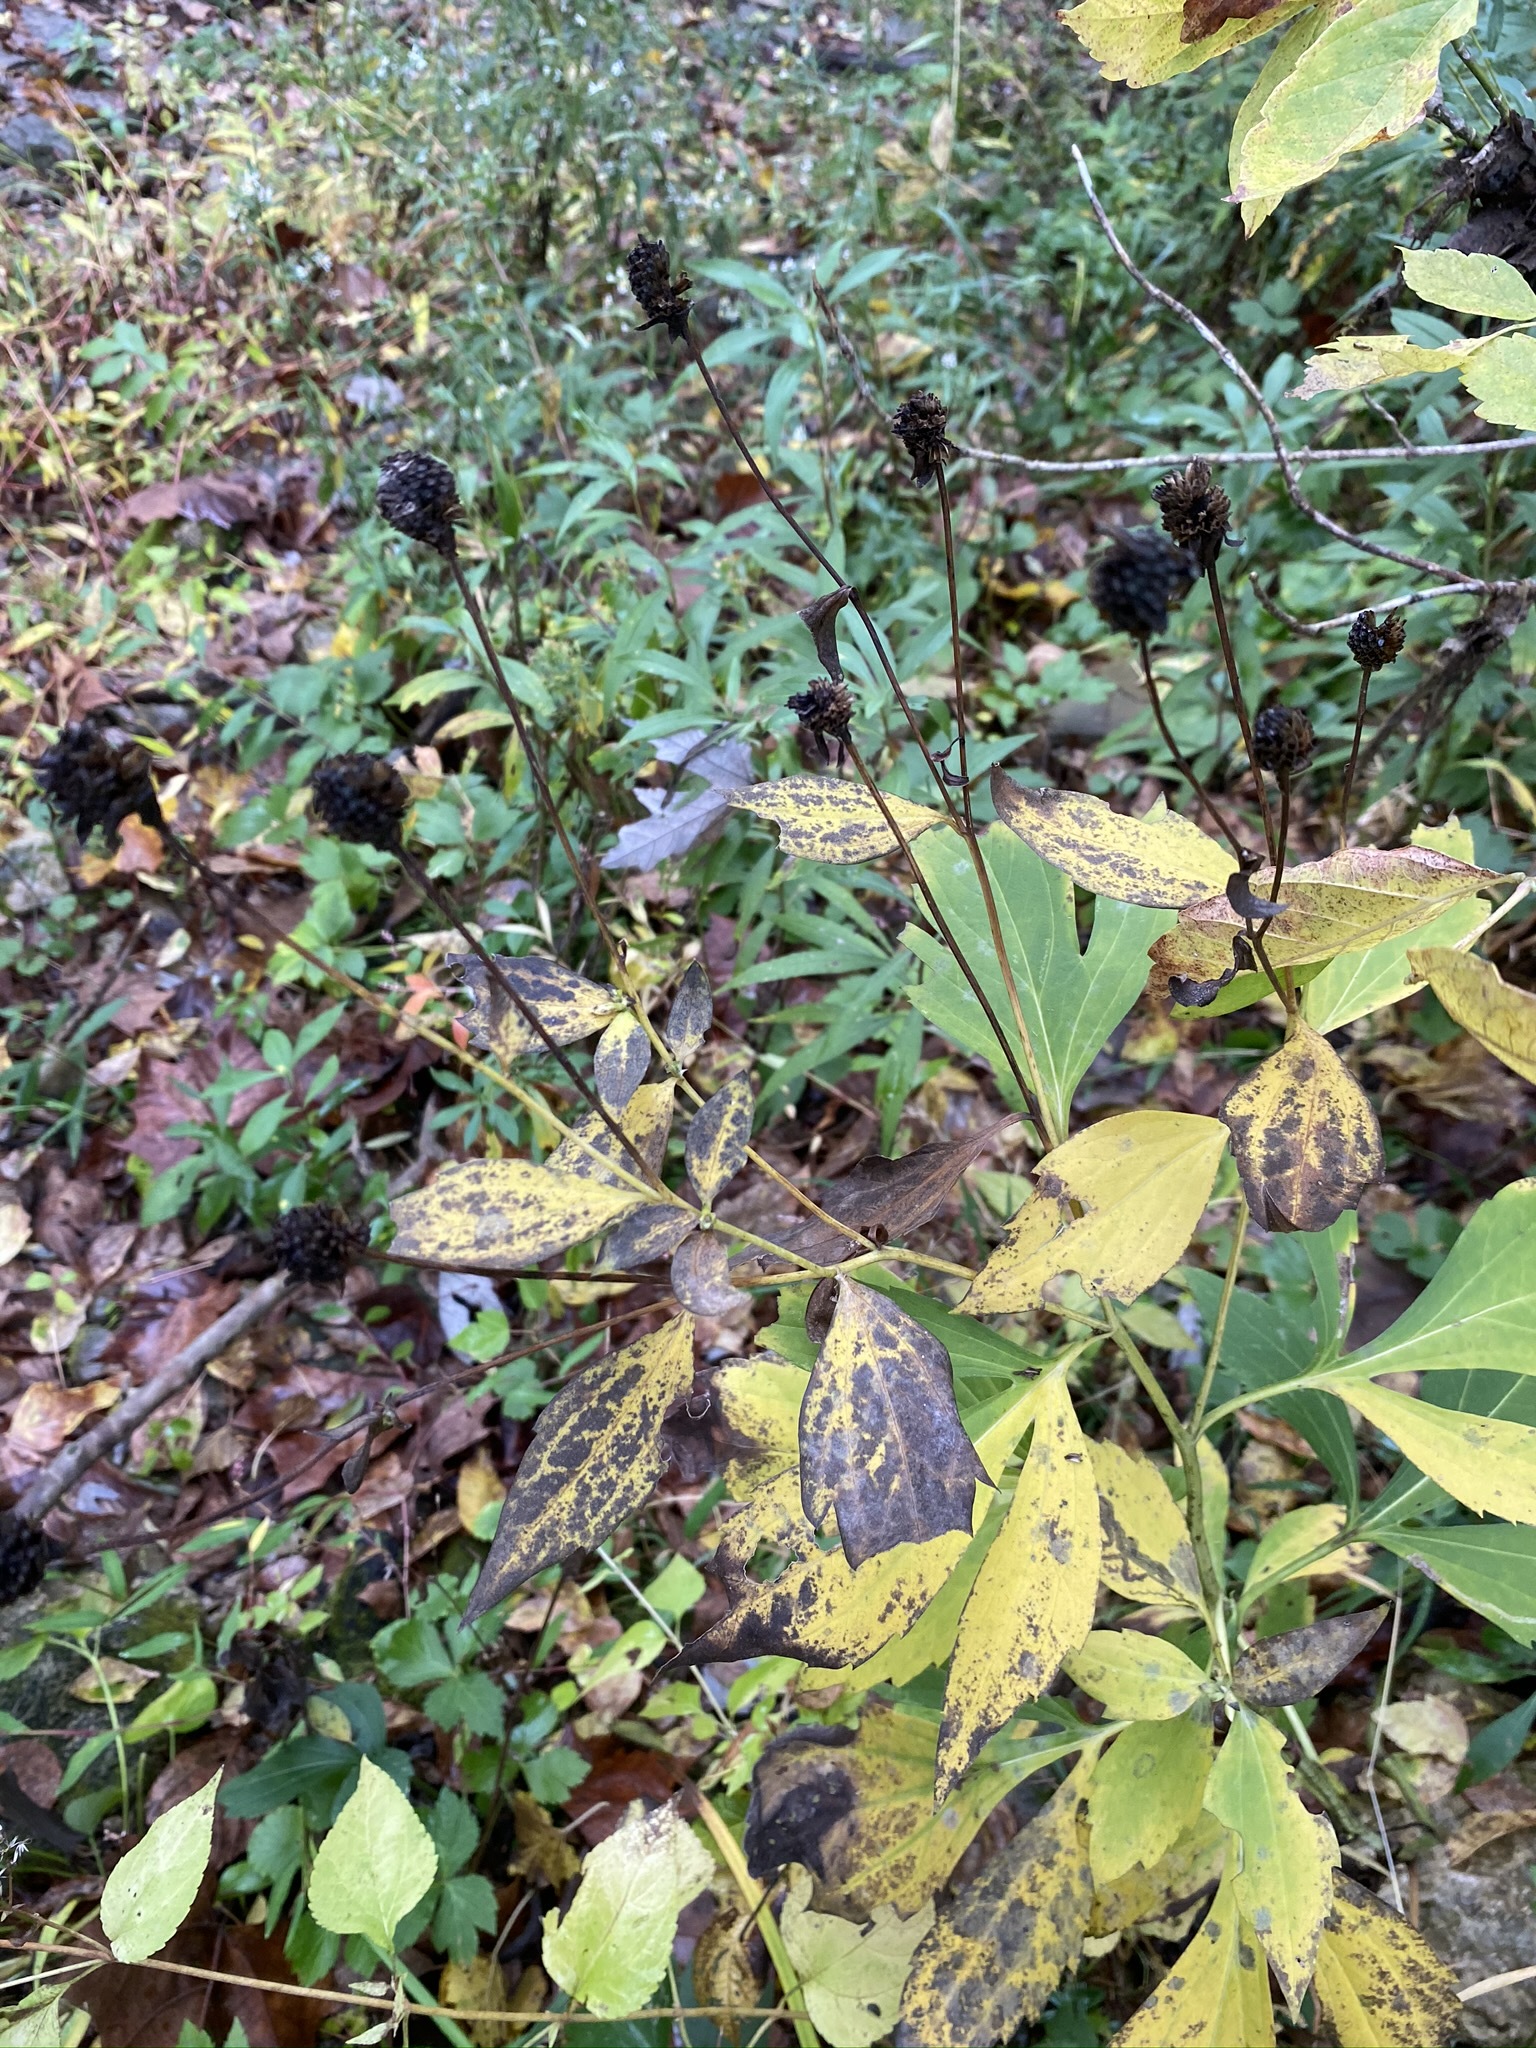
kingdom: Plantae
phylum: Tracheophyta
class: Magnoliopsida
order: Asterales
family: Asteraceae
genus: Rudbeckia
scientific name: Rudbeckia laciniata
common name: Coneflower
